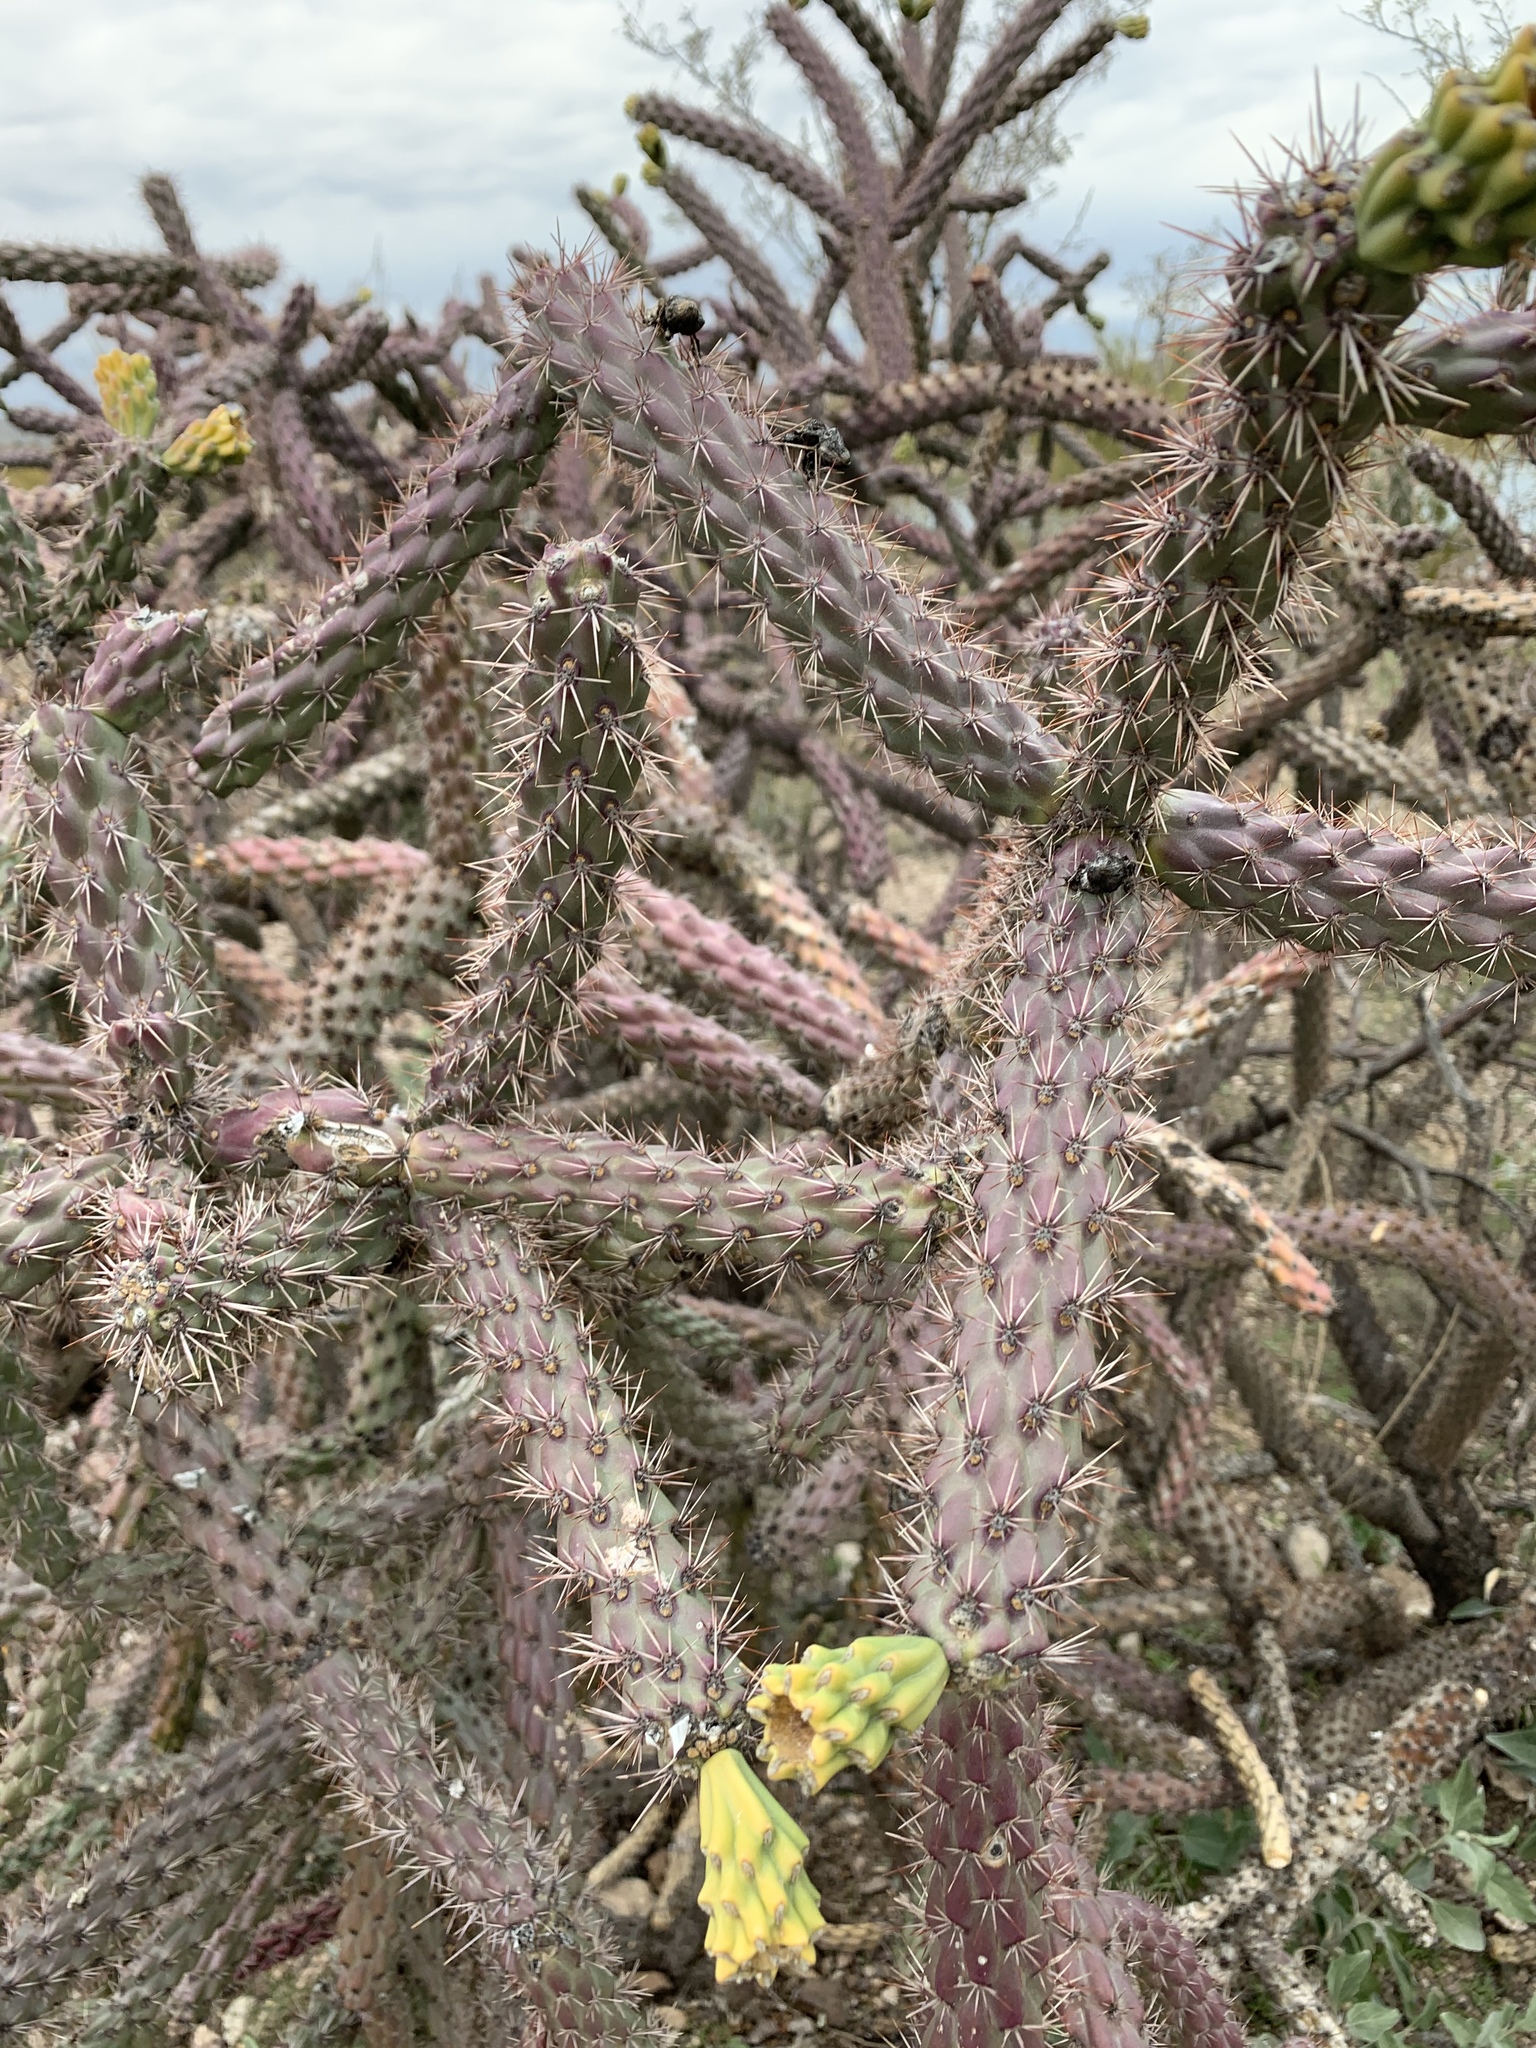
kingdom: Plantae
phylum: Tracheophyta
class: Magnoliopsida
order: Caryophyllales
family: Cactaceae
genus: Cylindropuntia
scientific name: Cylindropuntia imbricata
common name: Candelabrum cactus
